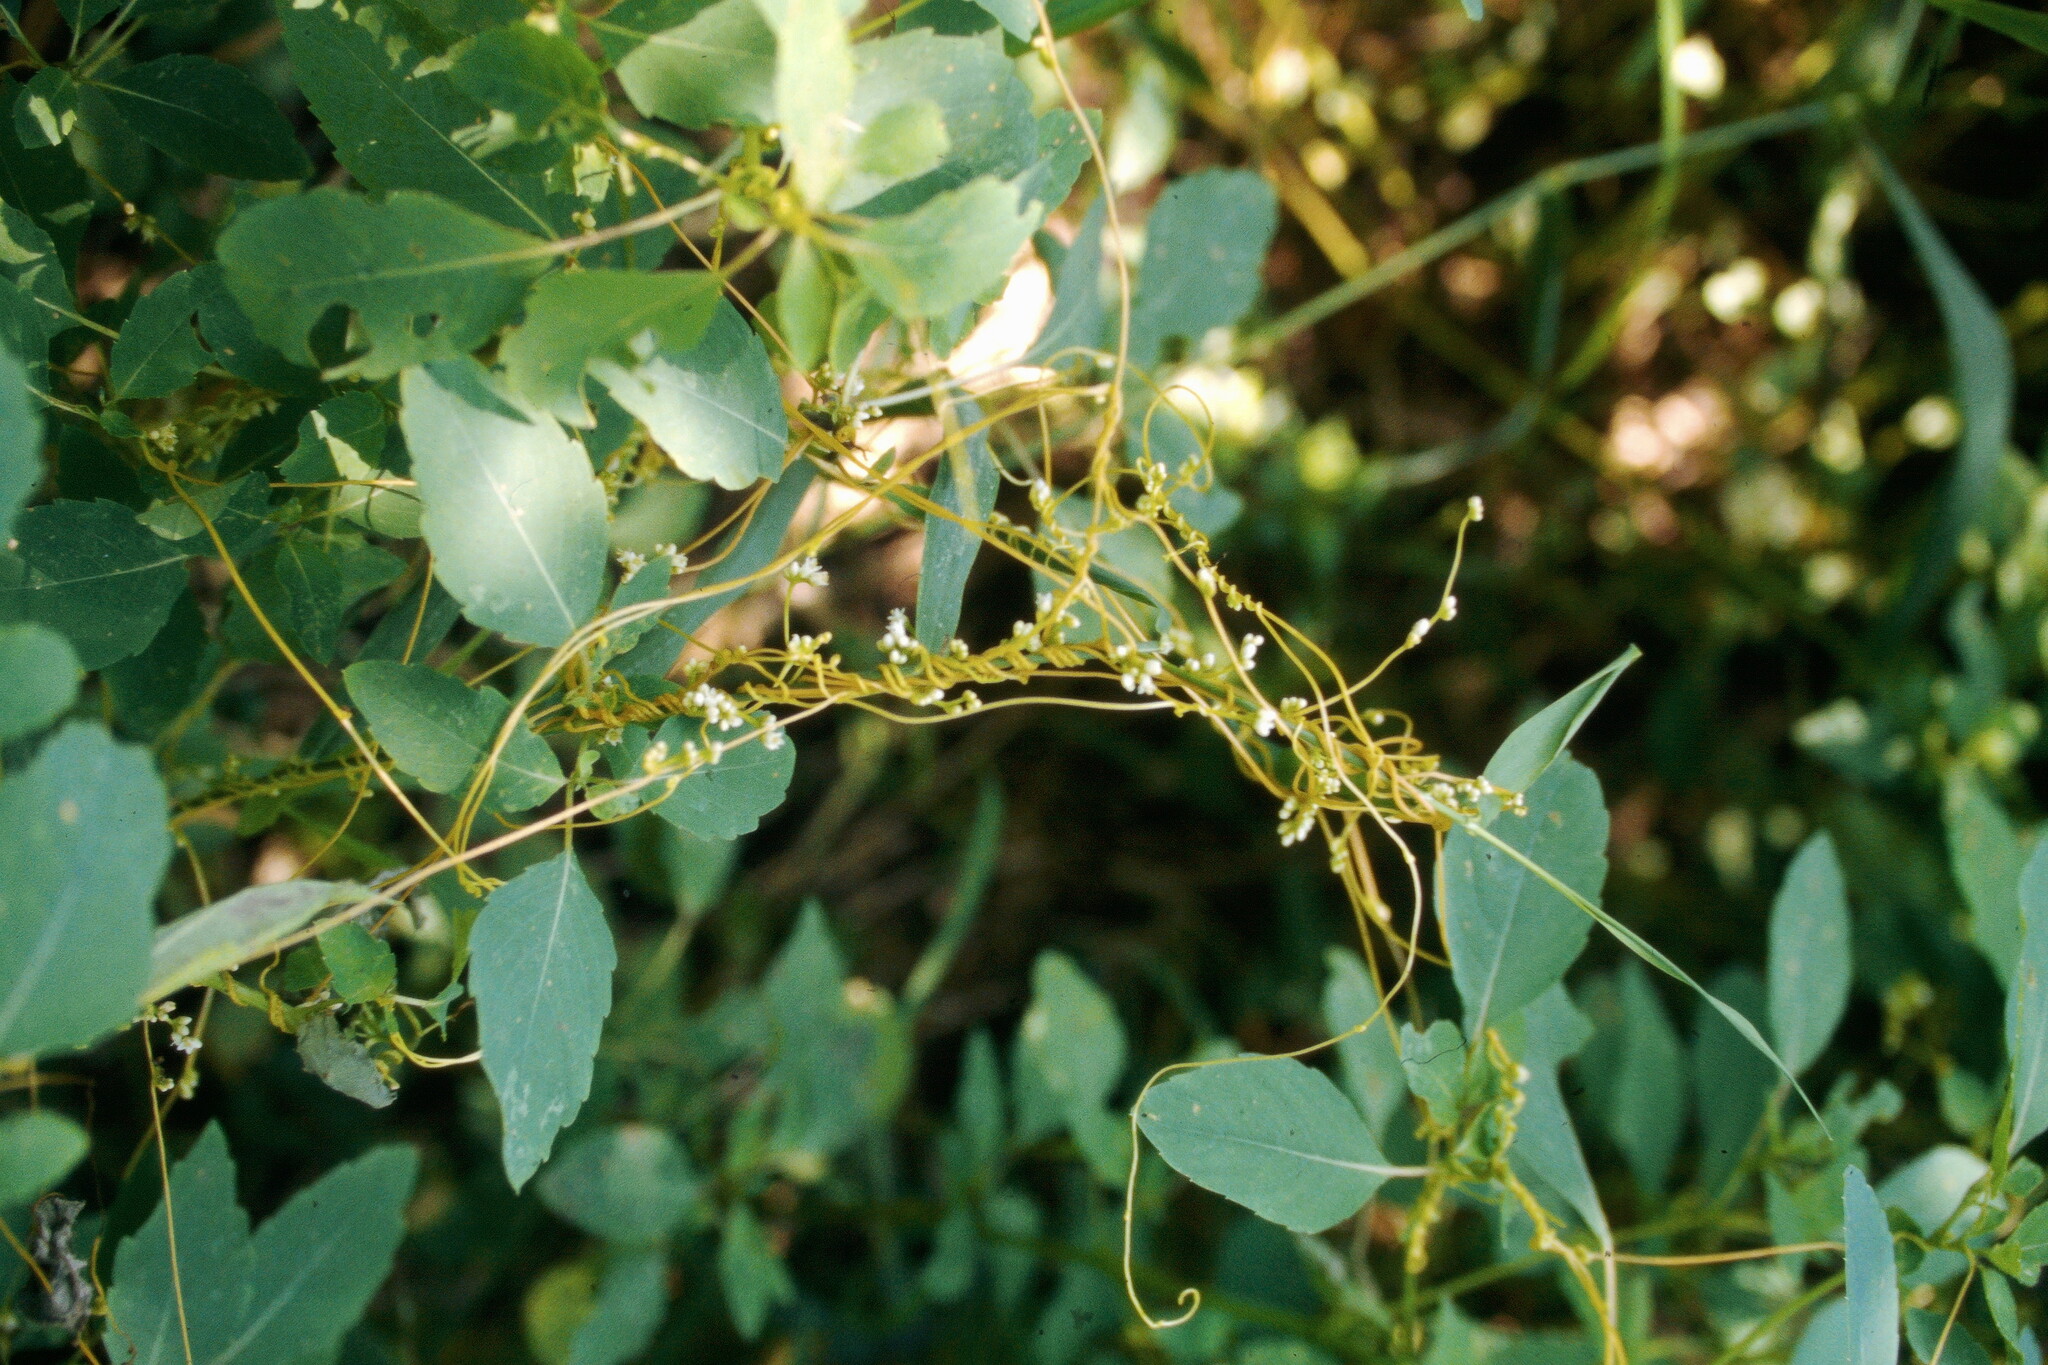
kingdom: Plantae
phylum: Tracheophyta
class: Magnoliopsida
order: Solanales
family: Convolvulaceae
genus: Cuscuta
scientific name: Cuscuta gronovii
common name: Common dodder
